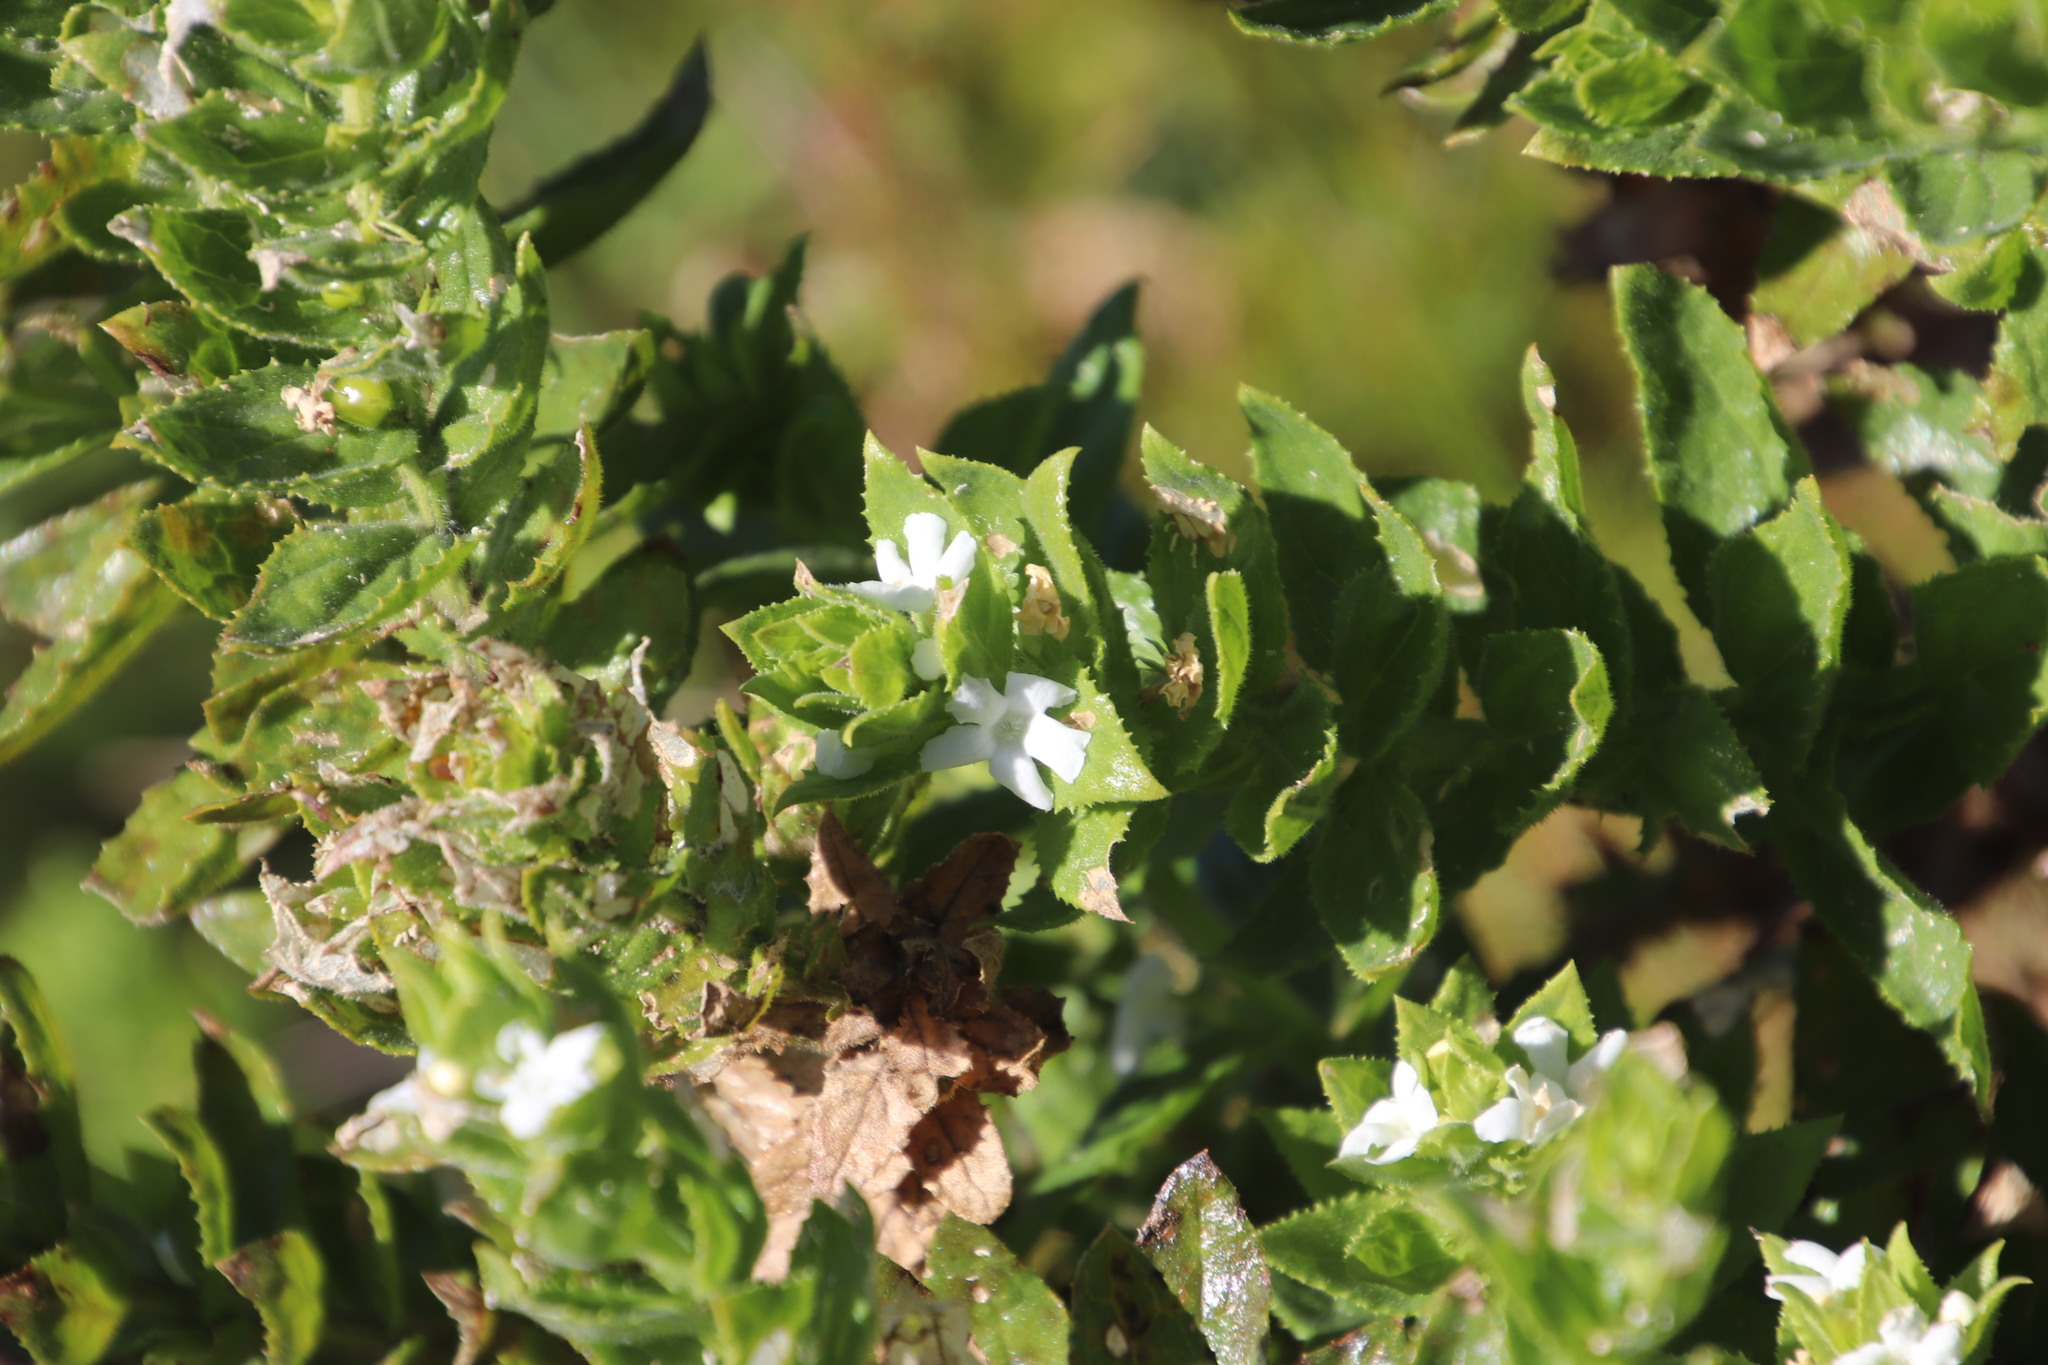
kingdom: Plantae
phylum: Tracheophyta
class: Magnoliopsida
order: Lamiales
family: Scrophulariaceae
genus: Oftia
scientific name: Oftia africana
